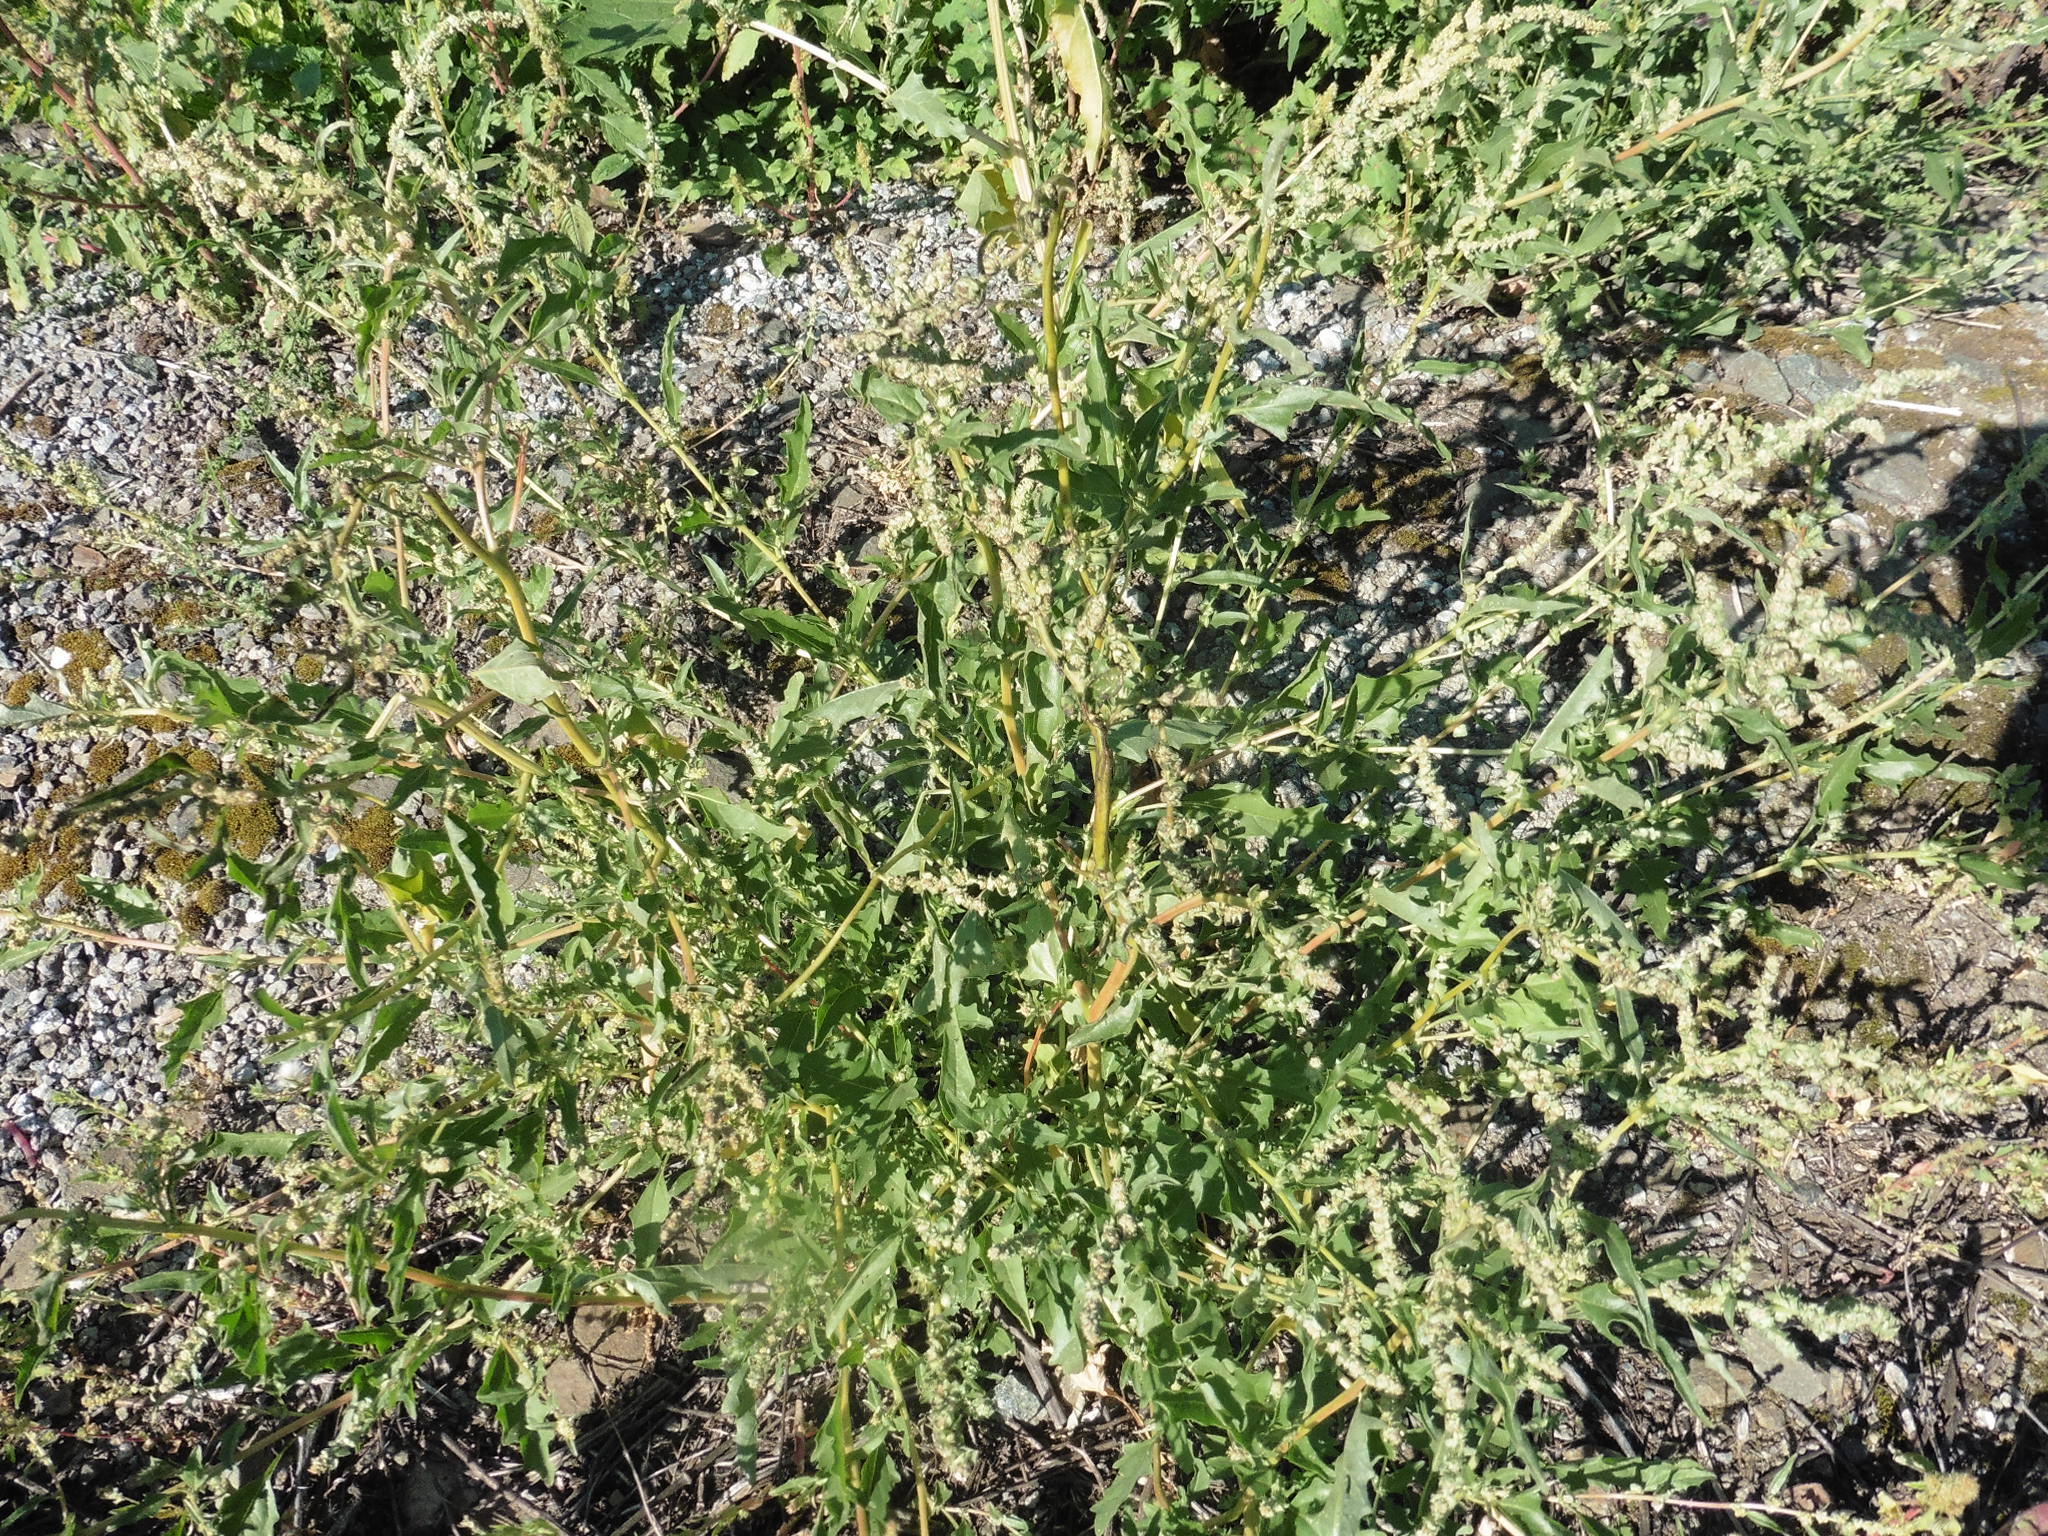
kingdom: Plantae
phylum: Tracheophyta
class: Magnoliopsida
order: Caryophyllales
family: Amaranthaceae
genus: Atriplex
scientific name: Atriplex tatarica
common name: Tatarian orache
